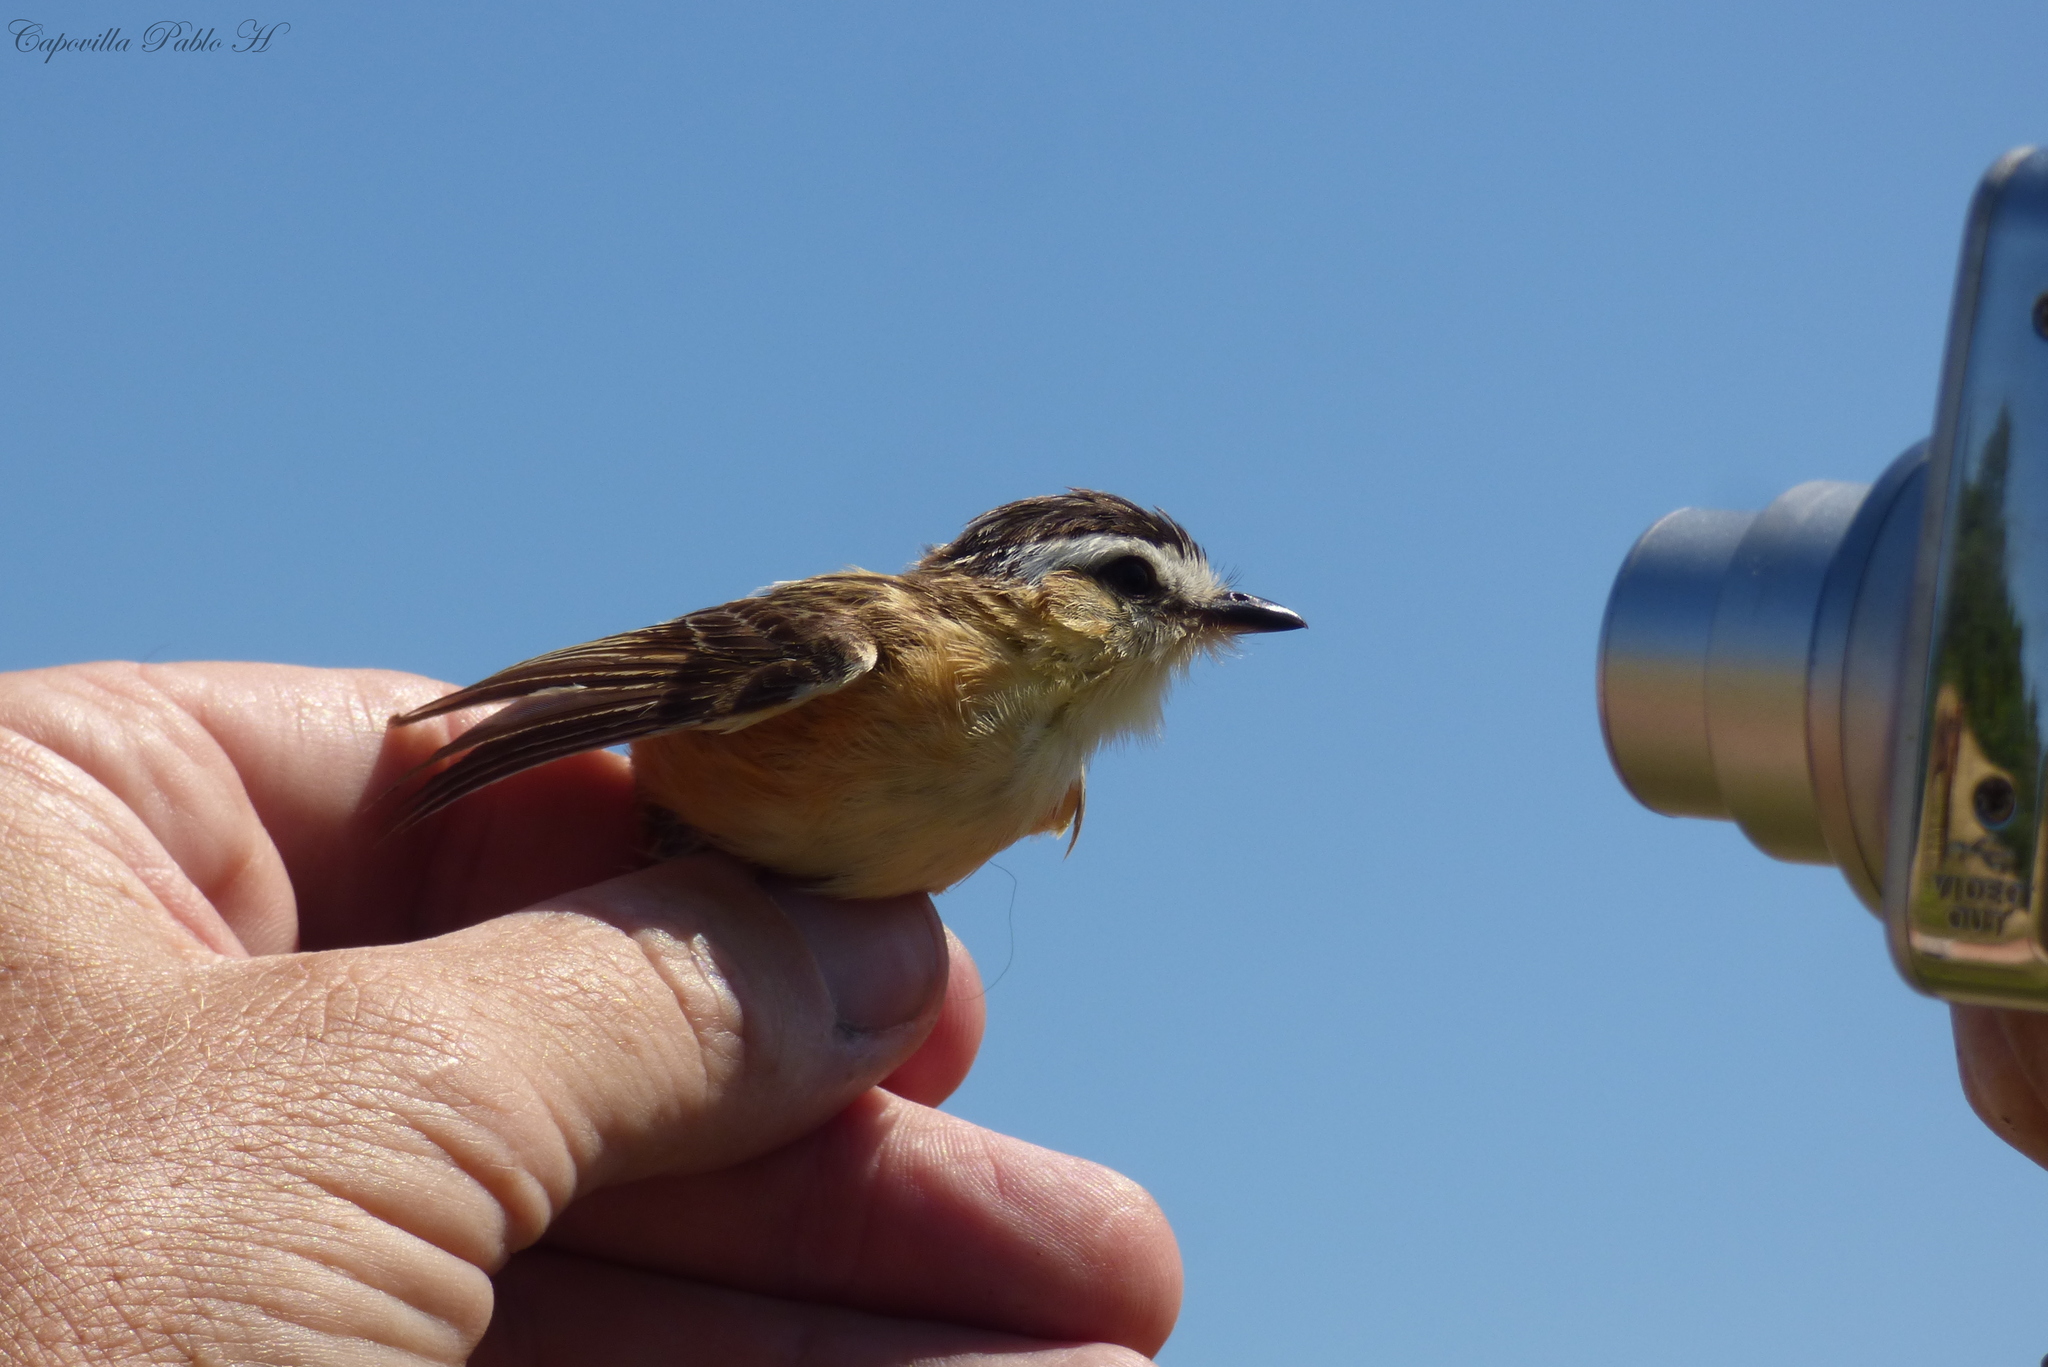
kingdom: Animalia
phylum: Chordata
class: Aves
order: Passeriformes
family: Tyrannidae
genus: Culicivora
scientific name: Culicivora caudacuta
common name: Sharp-tailed grass tyrant
